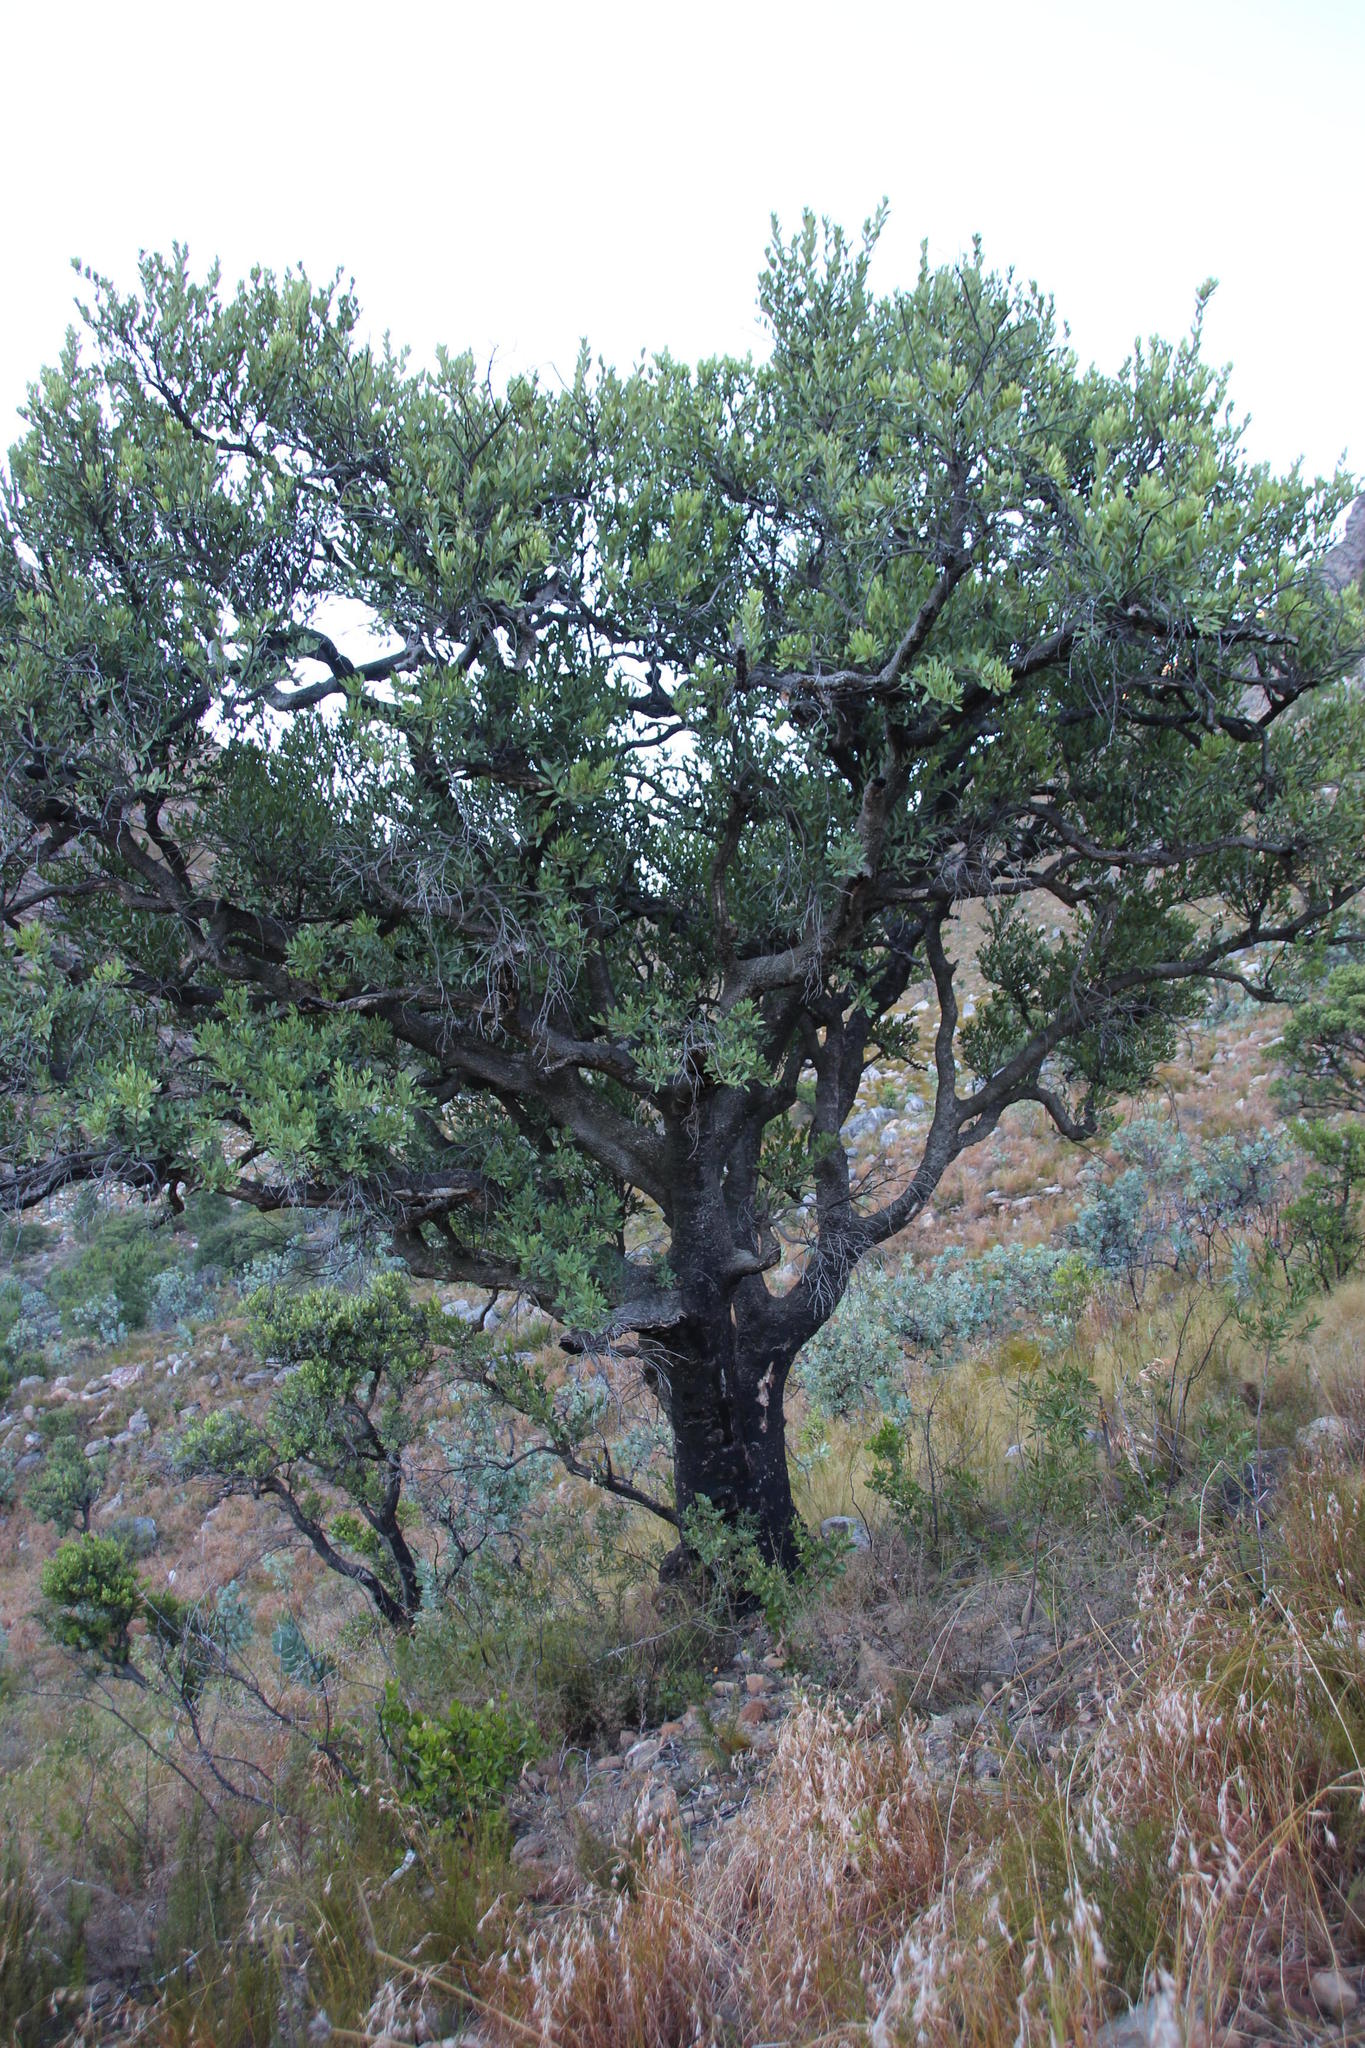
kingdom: Plantae
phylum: Tracheophyta
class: Magnoliopsida
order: Celastrales
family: Celastraceae
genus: Gymnosporia
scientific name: Gymnosporia laurina
